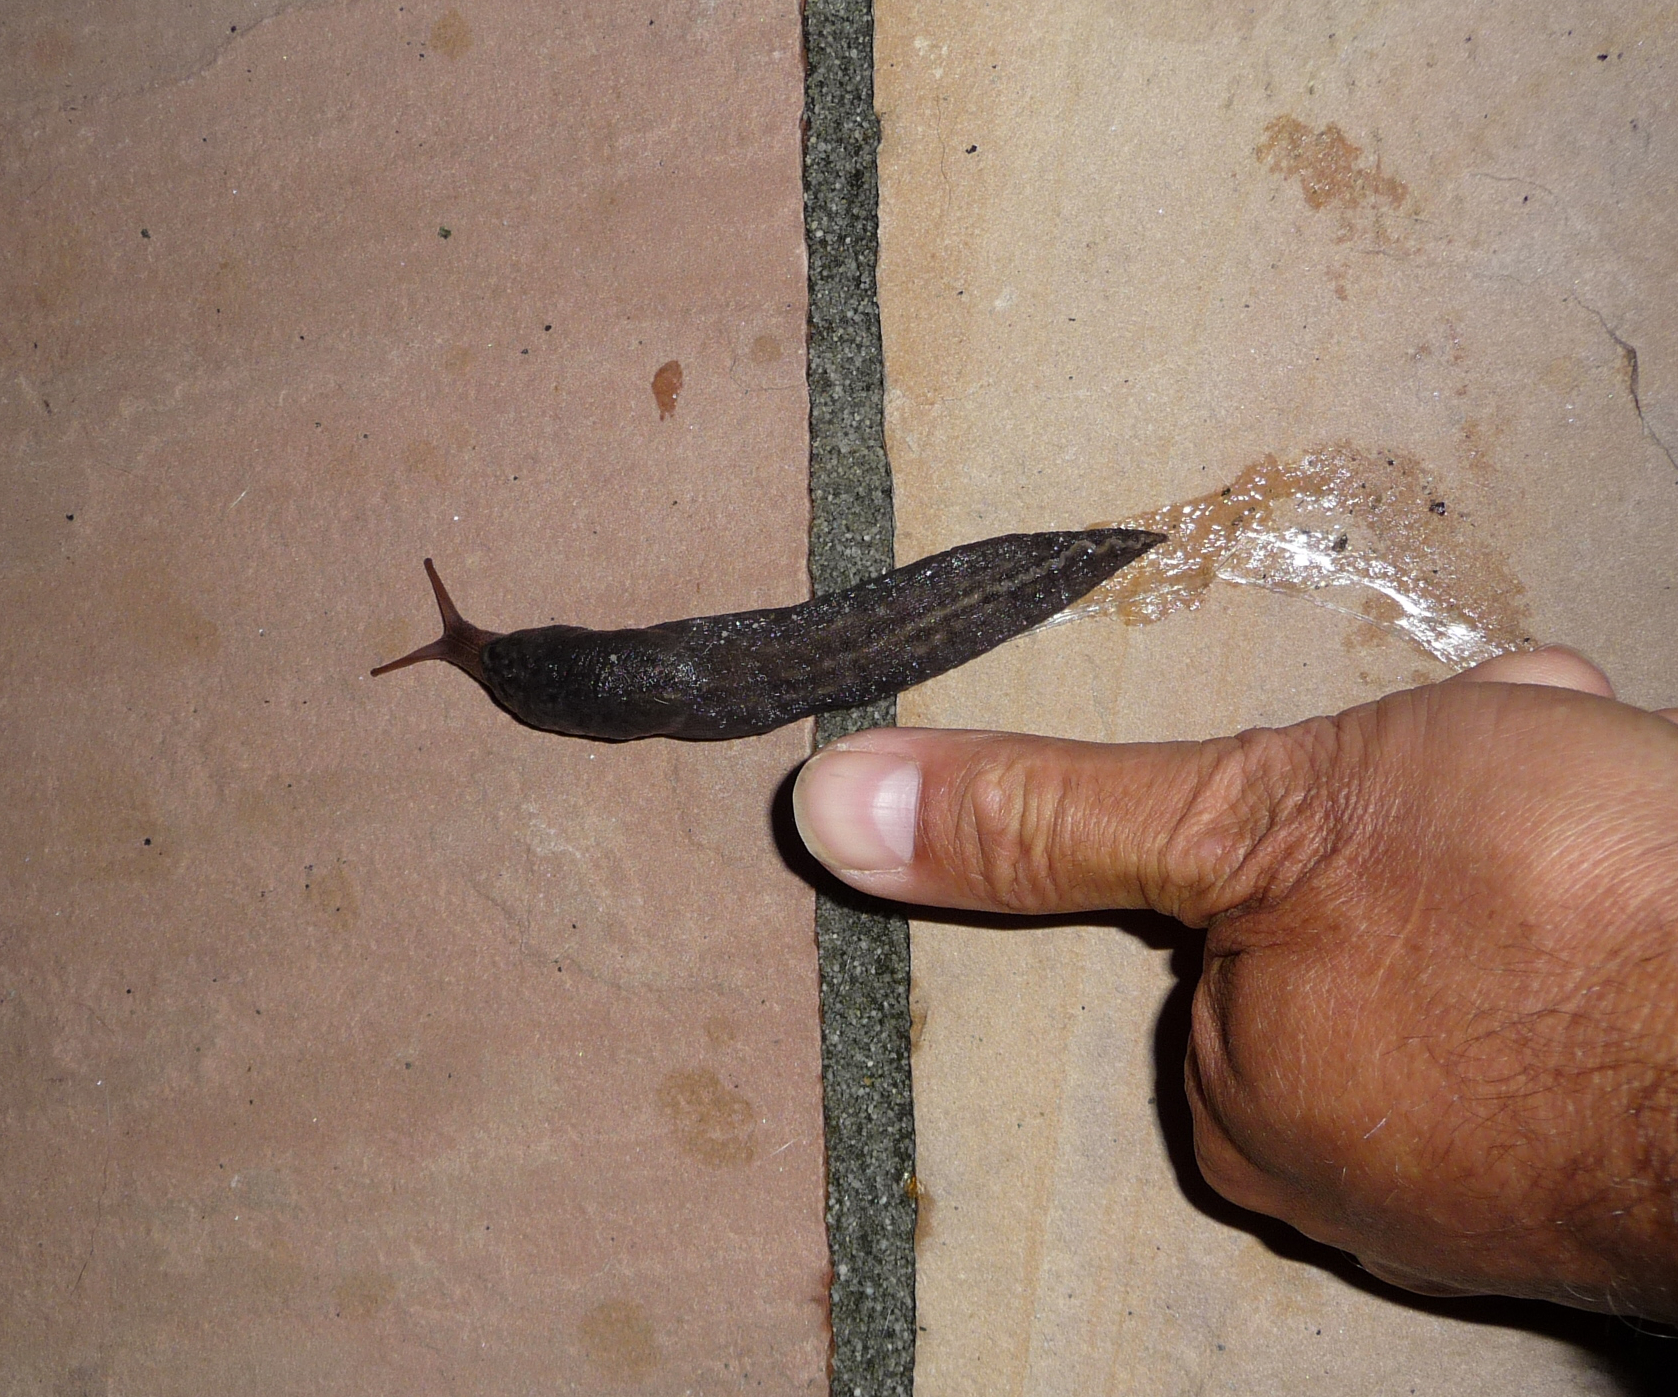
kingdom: Animalia
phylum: Mollusca
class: Gastropoda
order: Stylommatophora
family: Limacidae
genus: Limax
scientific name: Limax maximus
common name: Great grey slug
